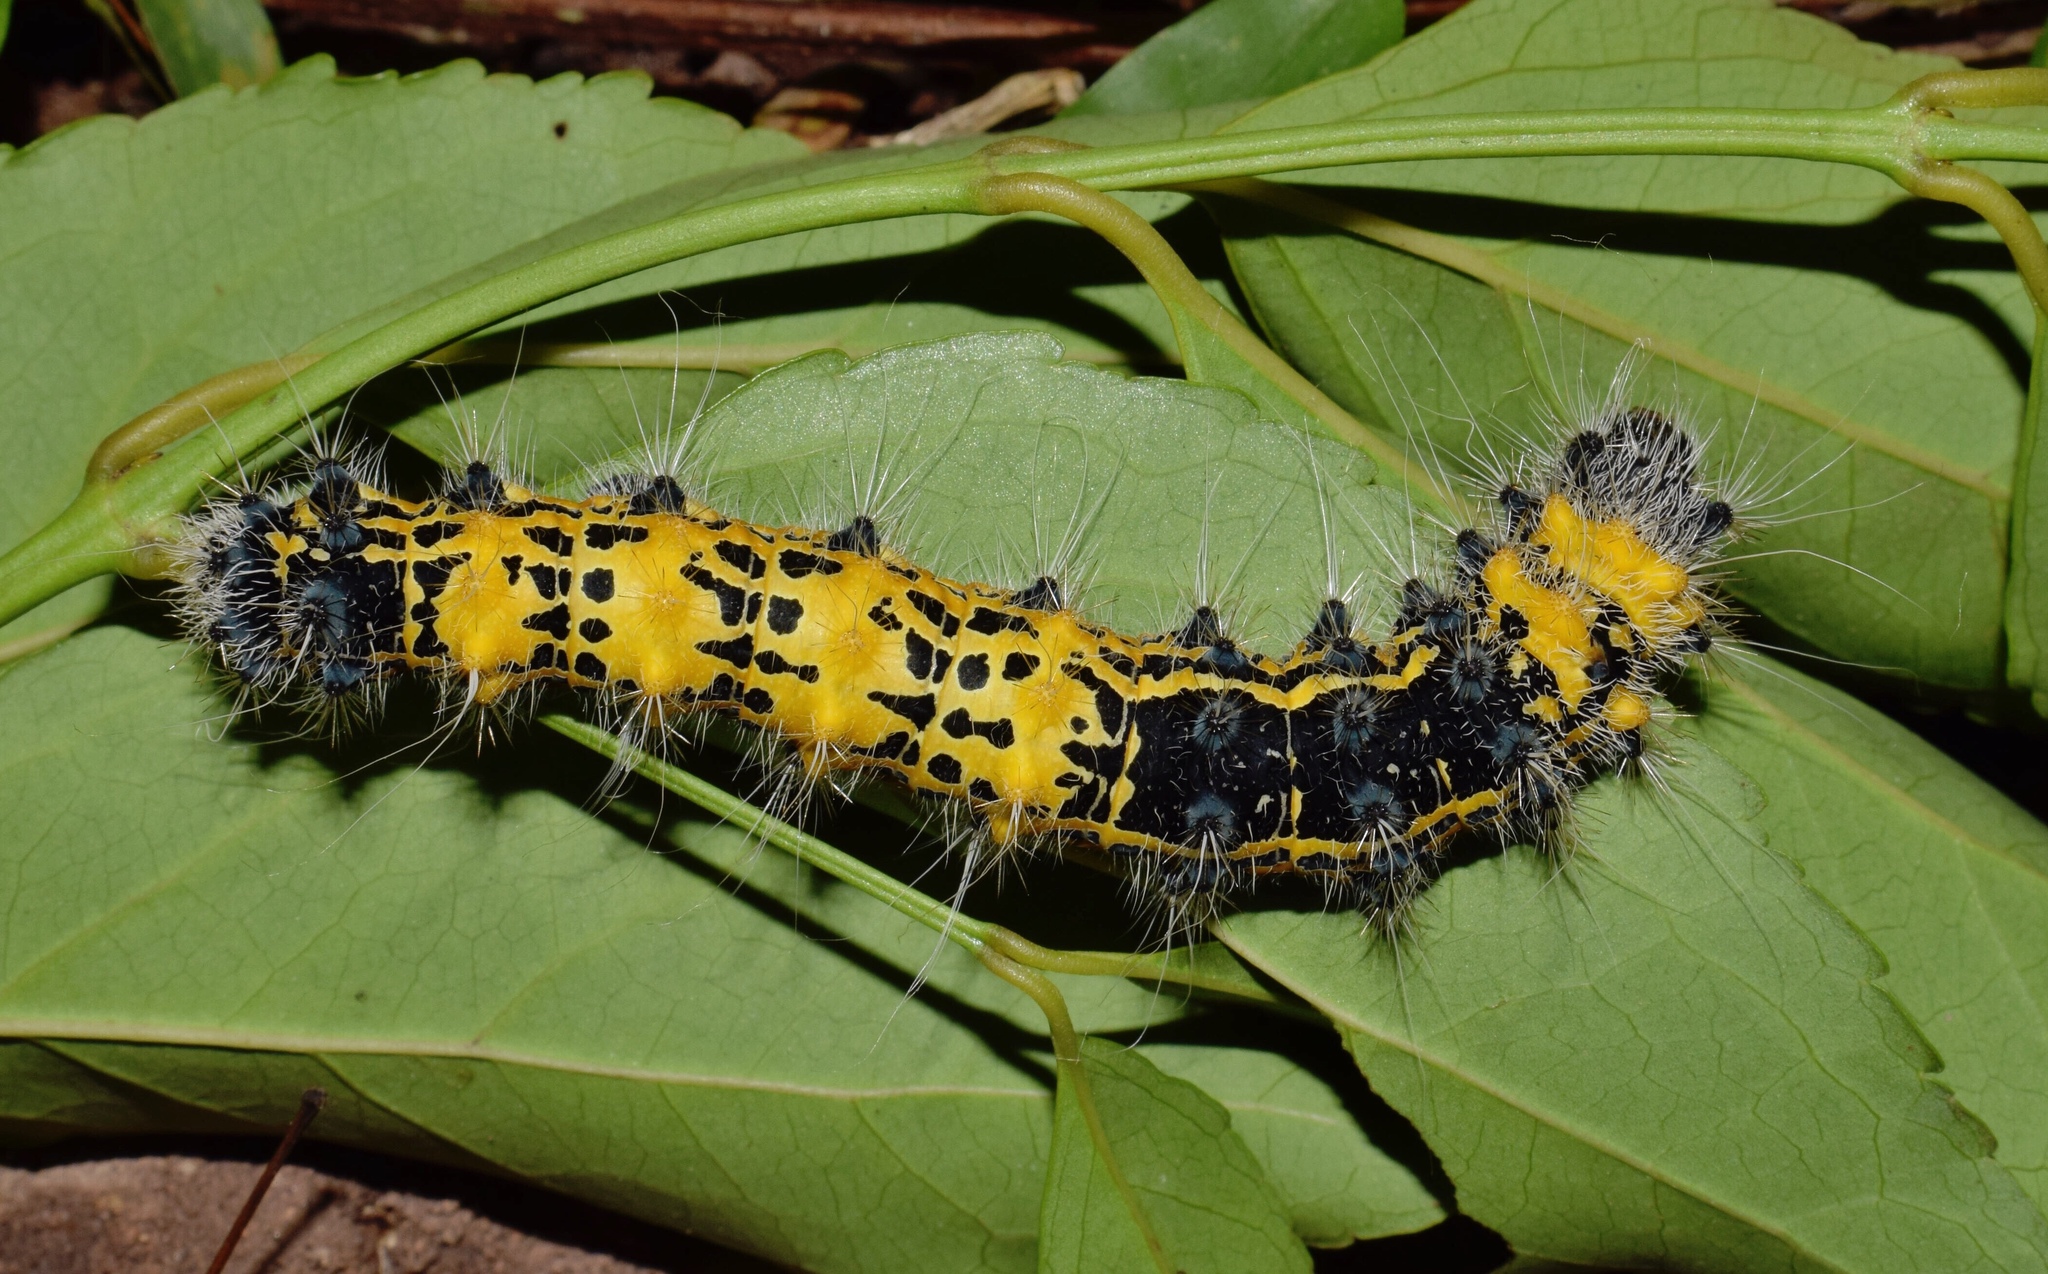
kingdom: Animalia
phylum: Arthropoda
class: Insecta
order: Lepidoptera
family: Saturniidae
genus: Holocerina
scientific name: Holocerina smilax
